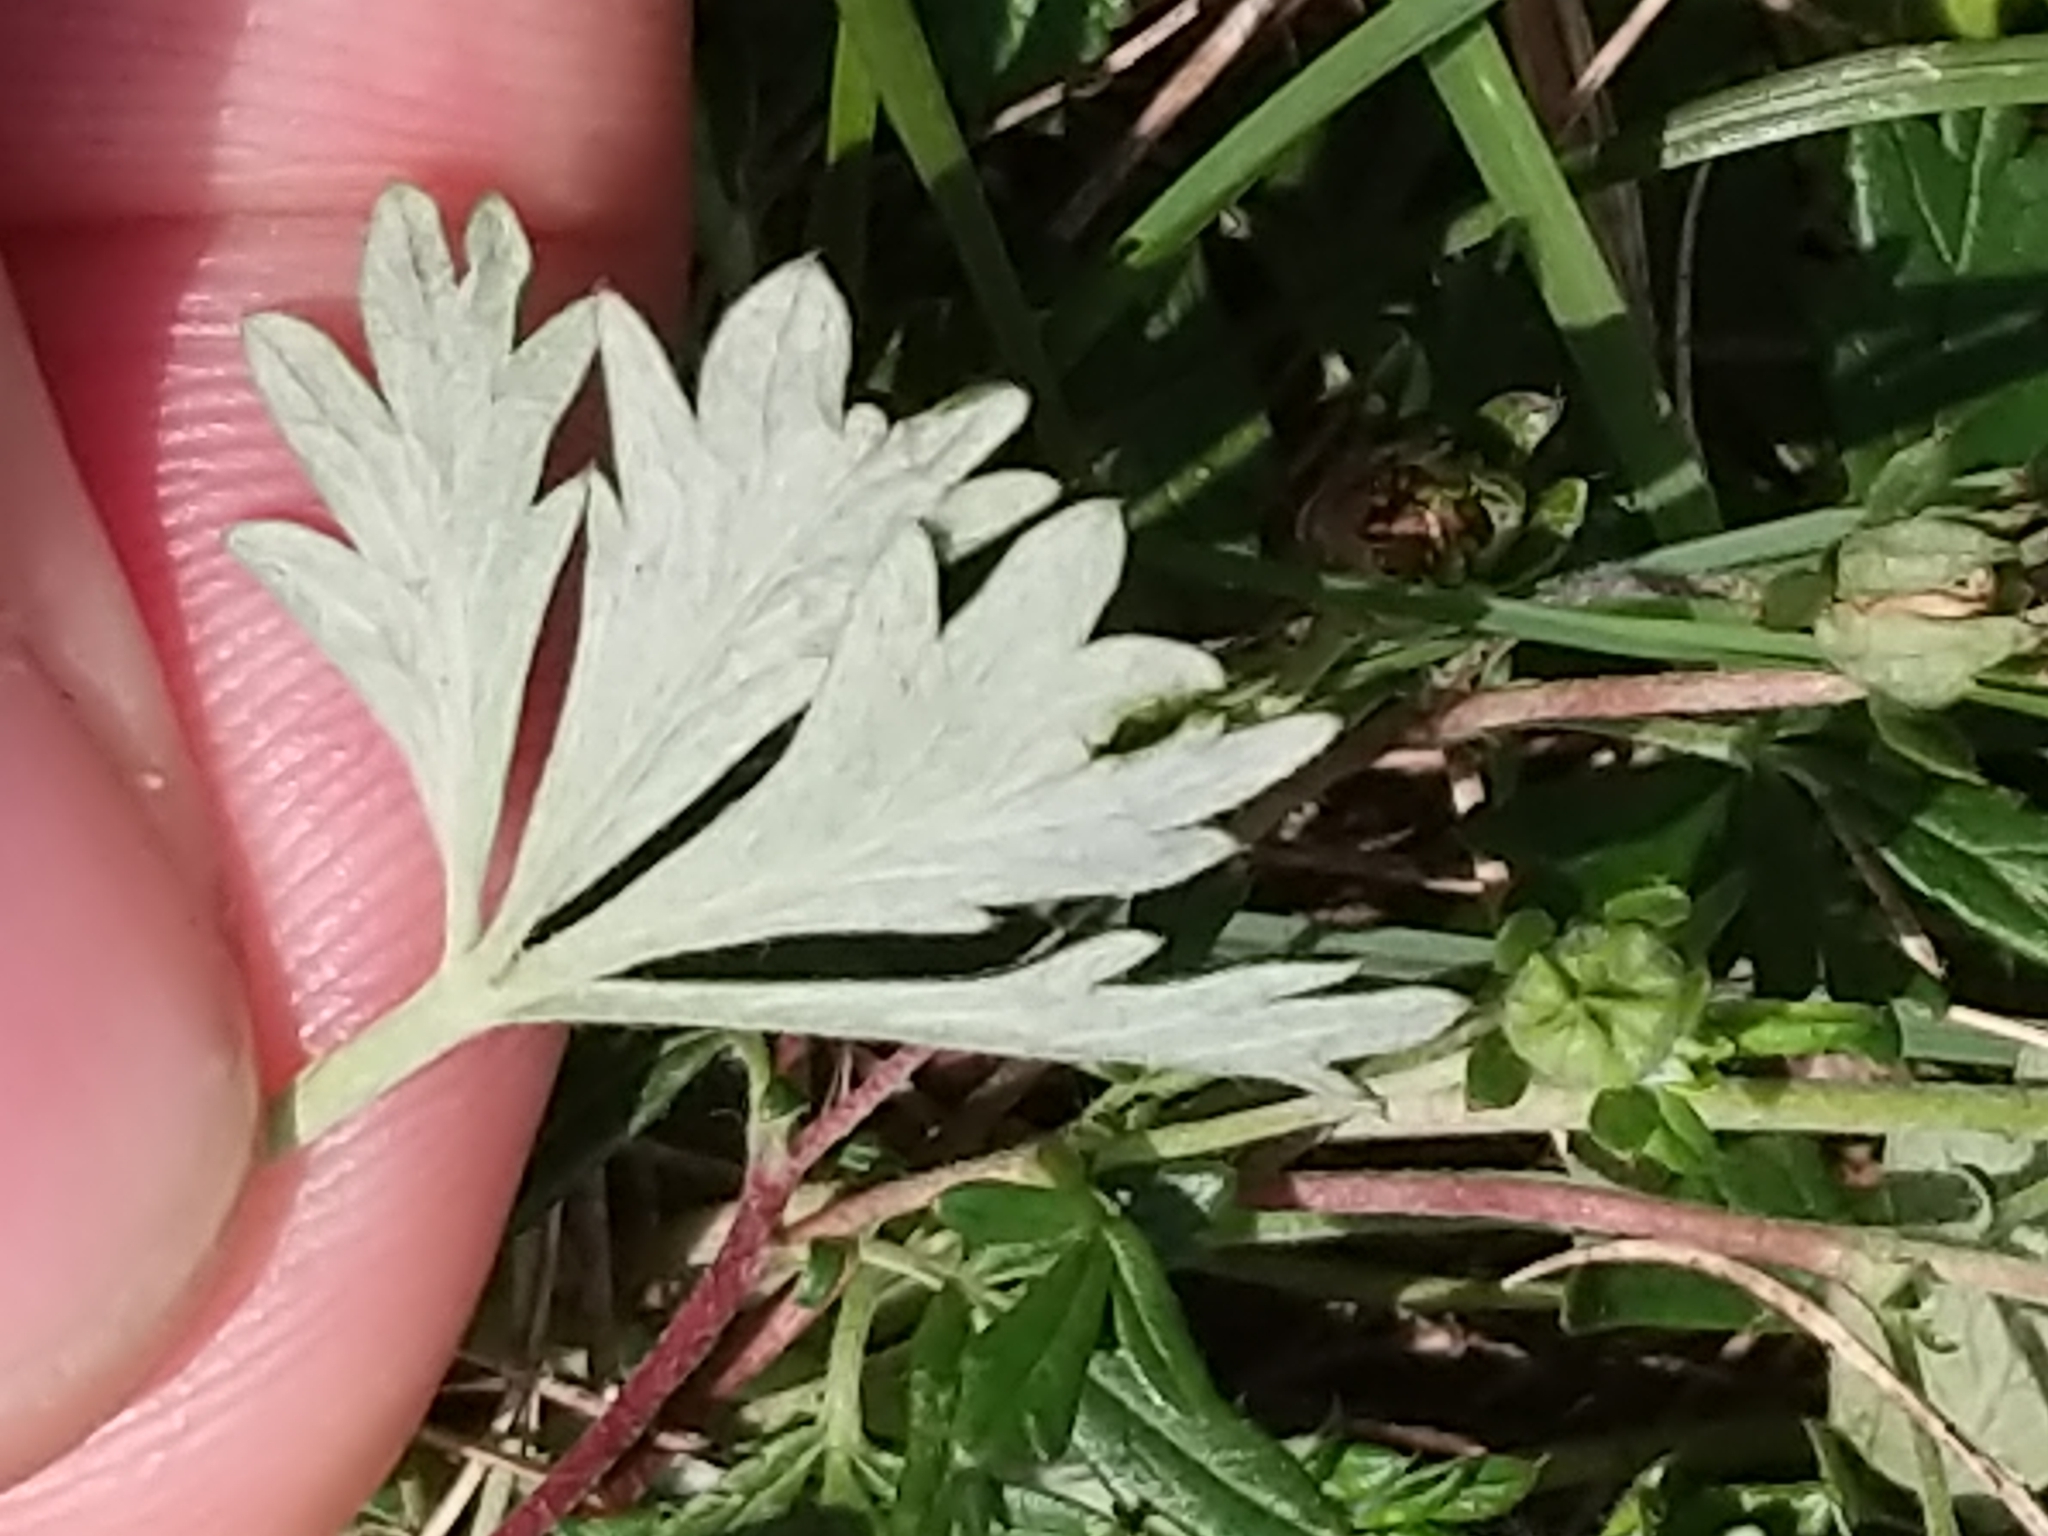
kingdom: Plantae
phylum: Tracheophyta
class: Magnoliopsida
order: Rosales
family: Rosaceae
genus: Potentilla
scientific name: Potentilla argentea
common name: Hoary cinquefoil
